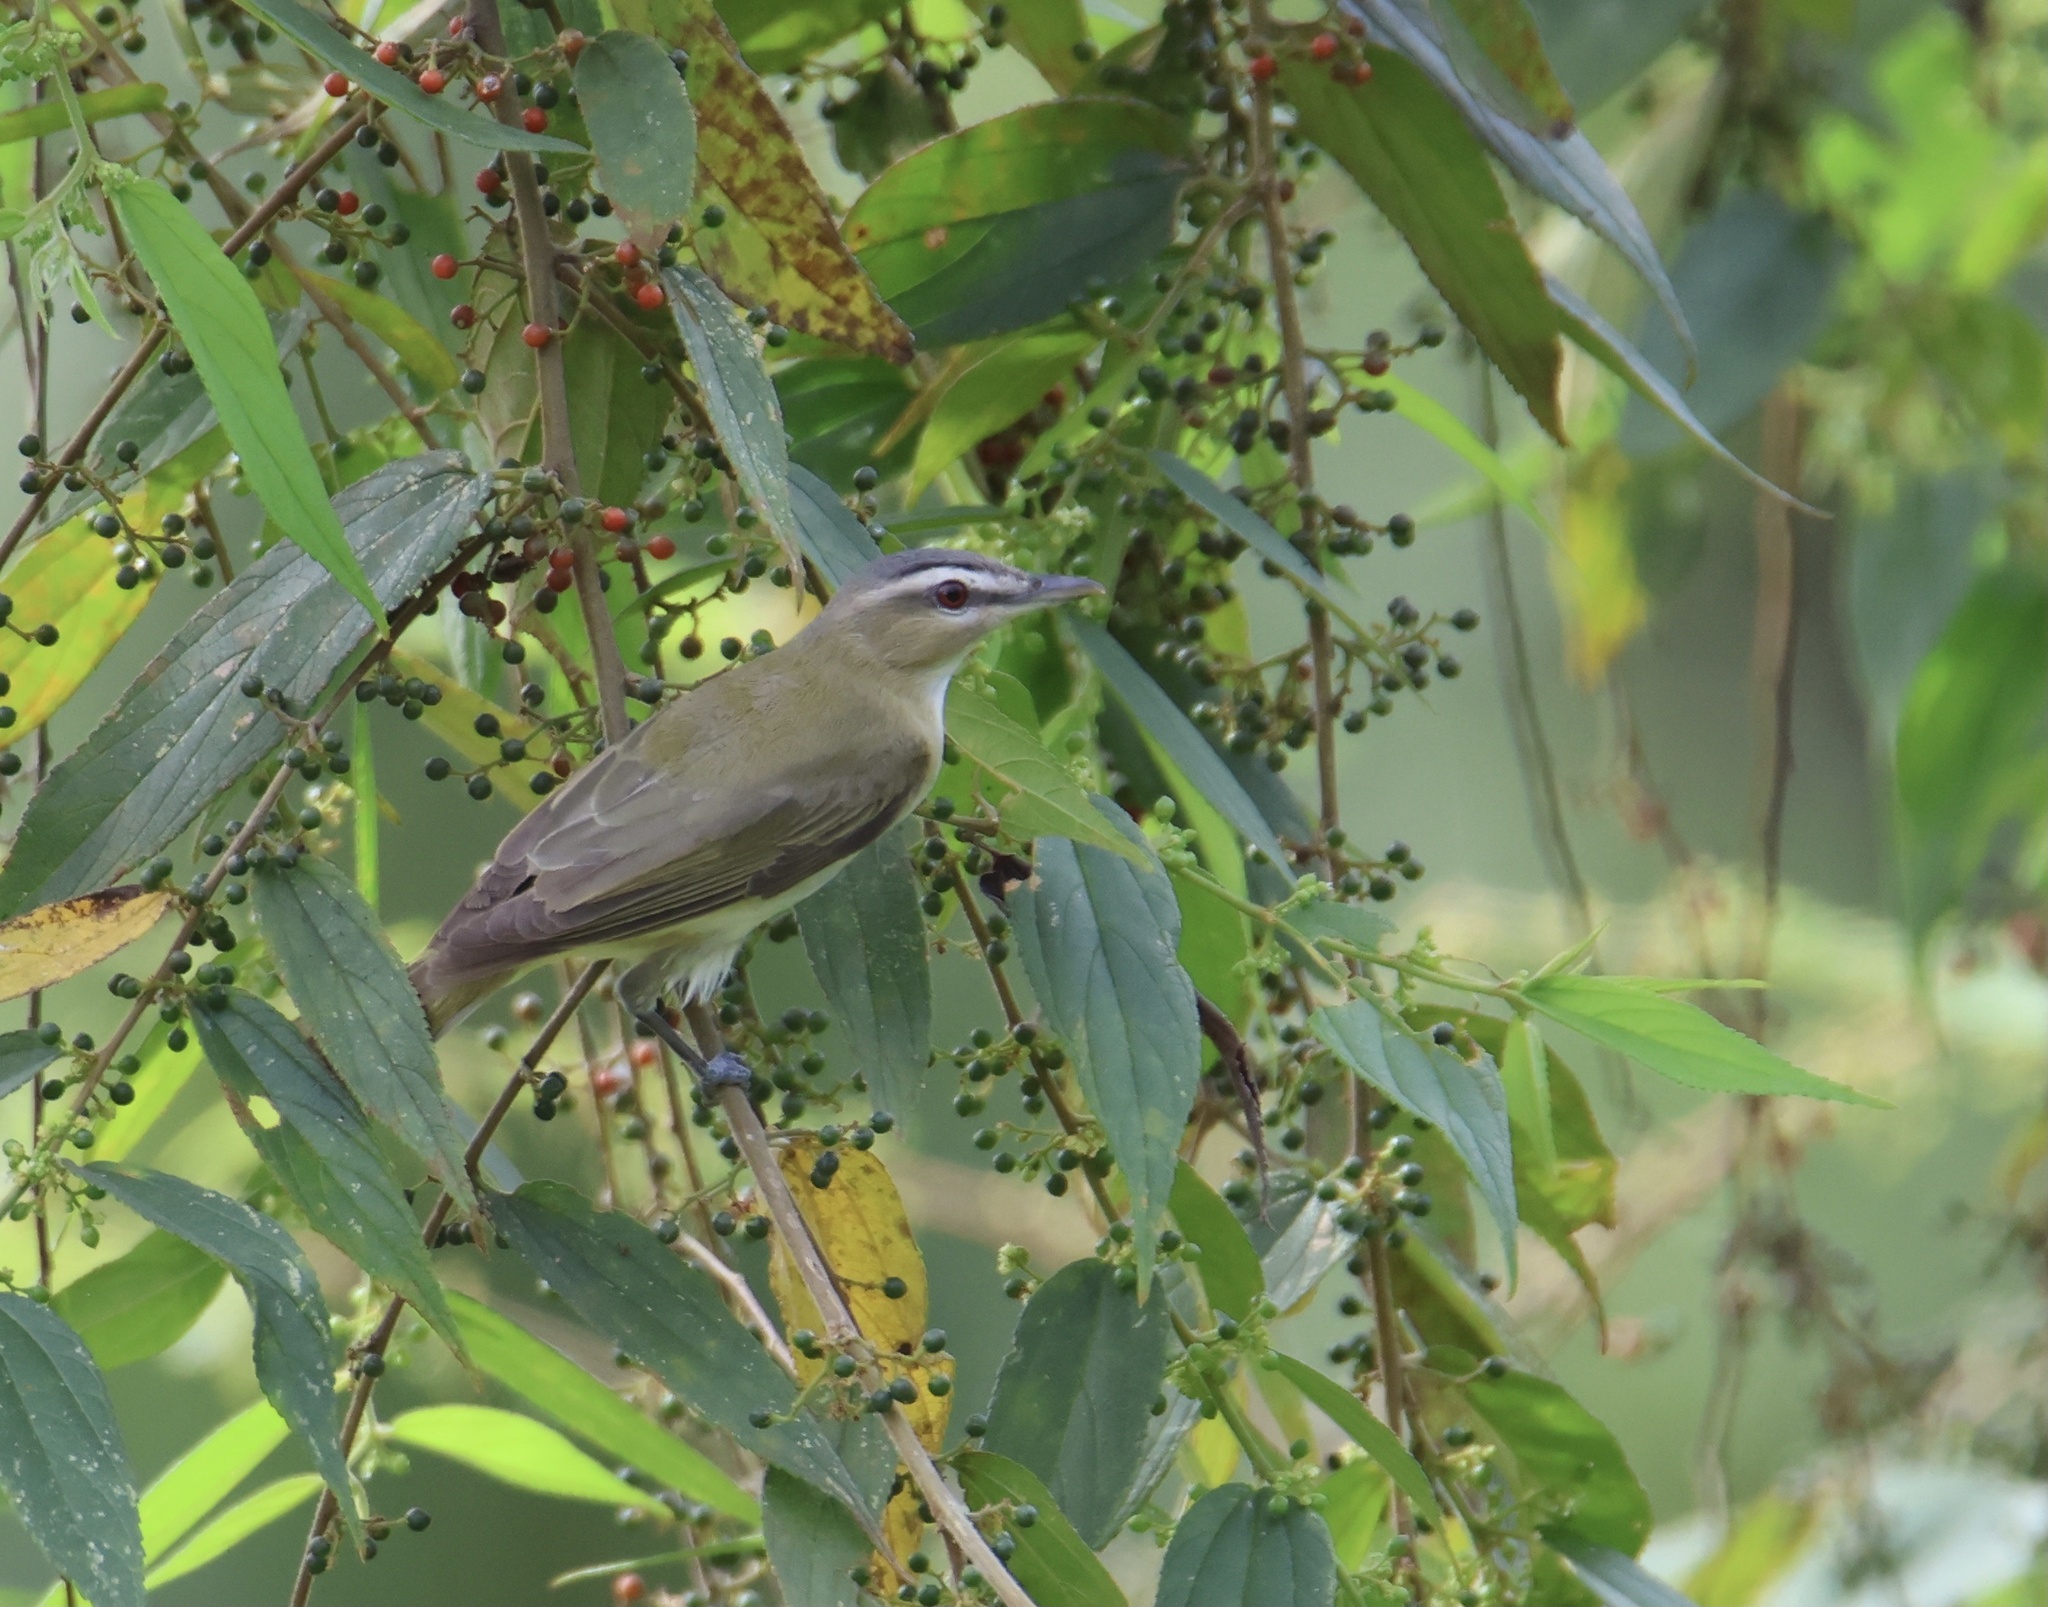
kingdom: Animalia
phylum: Chordata
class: Aves
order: Passeriformes
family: Vireonidae
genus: Vireo
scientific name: Vireo olivaceus
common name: Red-eyed vireo
